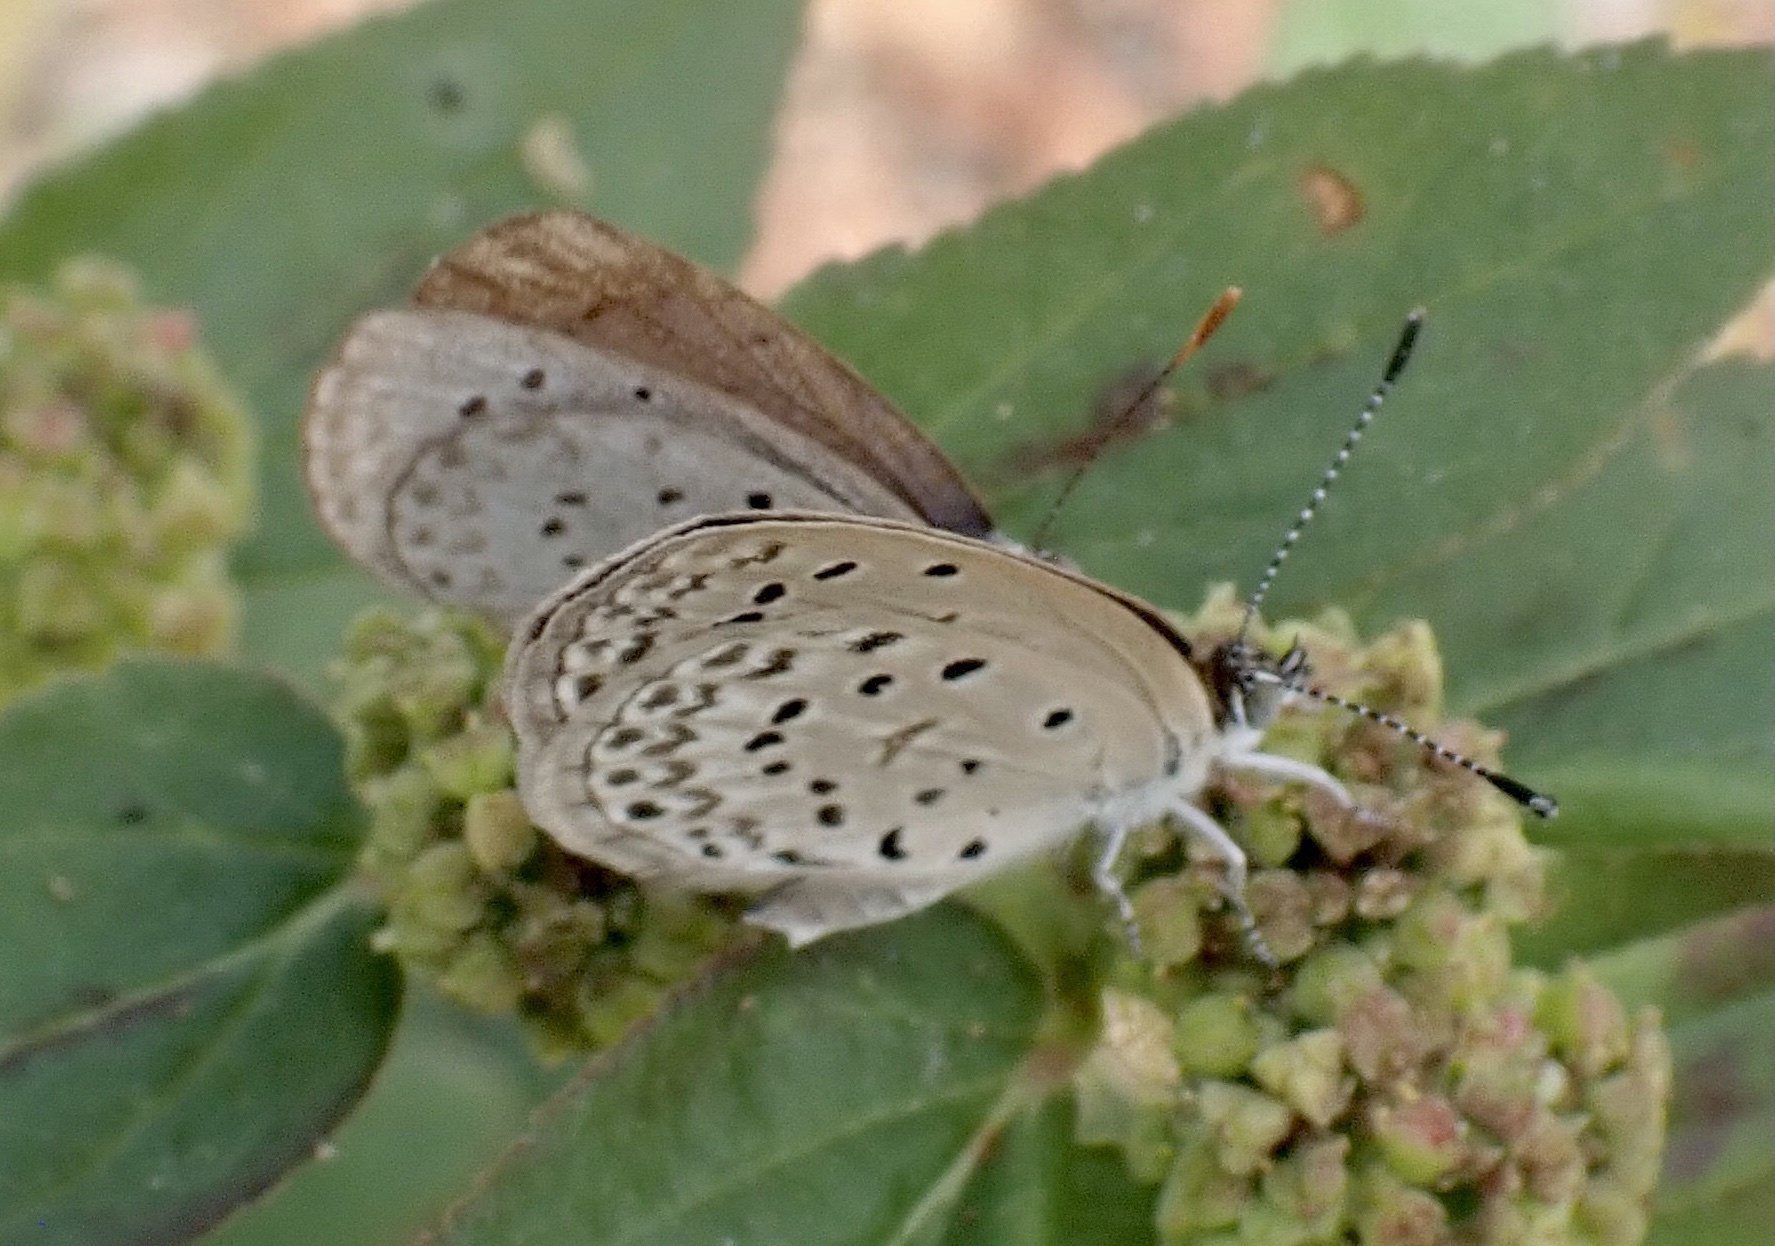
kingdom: Animalia
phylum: Arthropoda
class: Insecta
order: Lepidoptera
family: Lycaenidae
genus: Zizeeria
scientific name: Zizeeria knysna
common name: African grass blue
